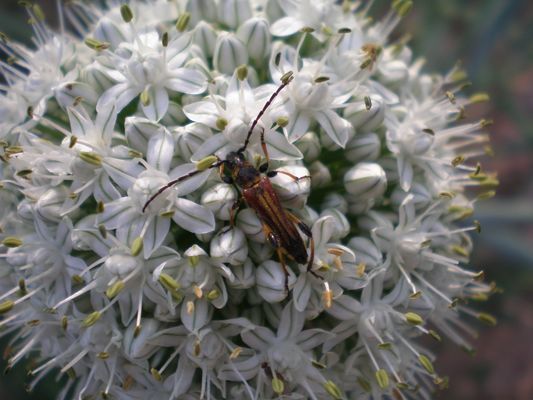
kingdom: Animalia
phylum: Arthropoda
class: Insecta
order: Coleoptera
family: Cerambycidae
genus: Stenopterus
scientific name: Stenopterus ater
